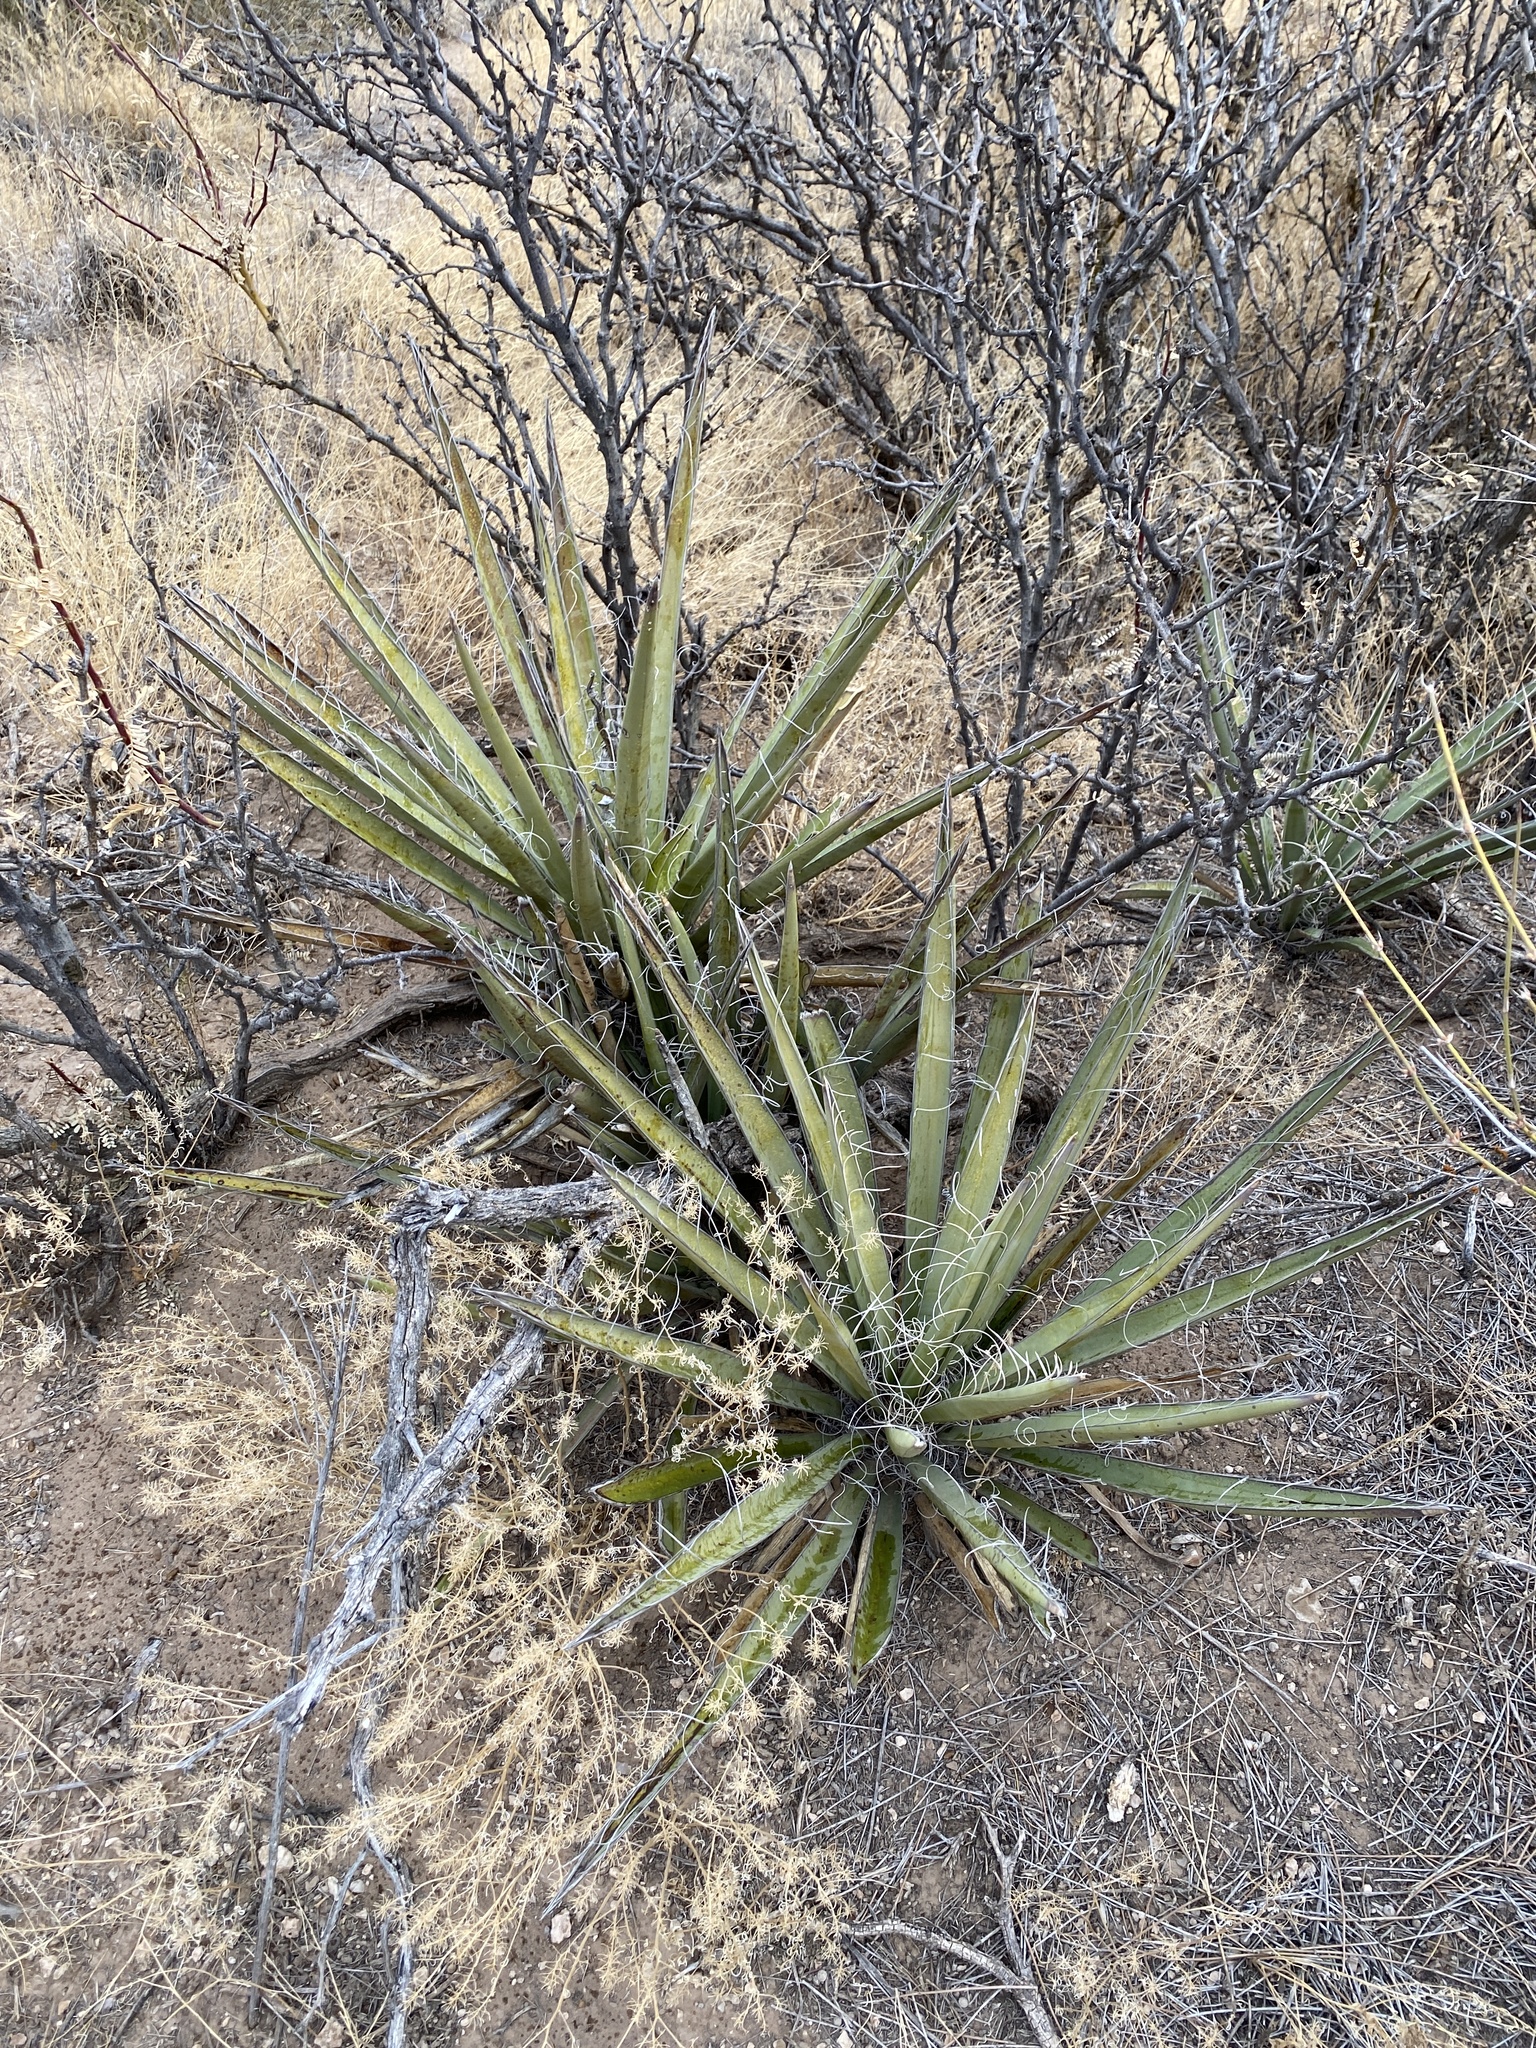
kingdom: Plantae
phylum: Tracheophyta
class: Liliopsida
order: Asparagales
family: Asparagaceae
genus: Yucca
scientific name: Yucca baccata
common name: Banana yucca
